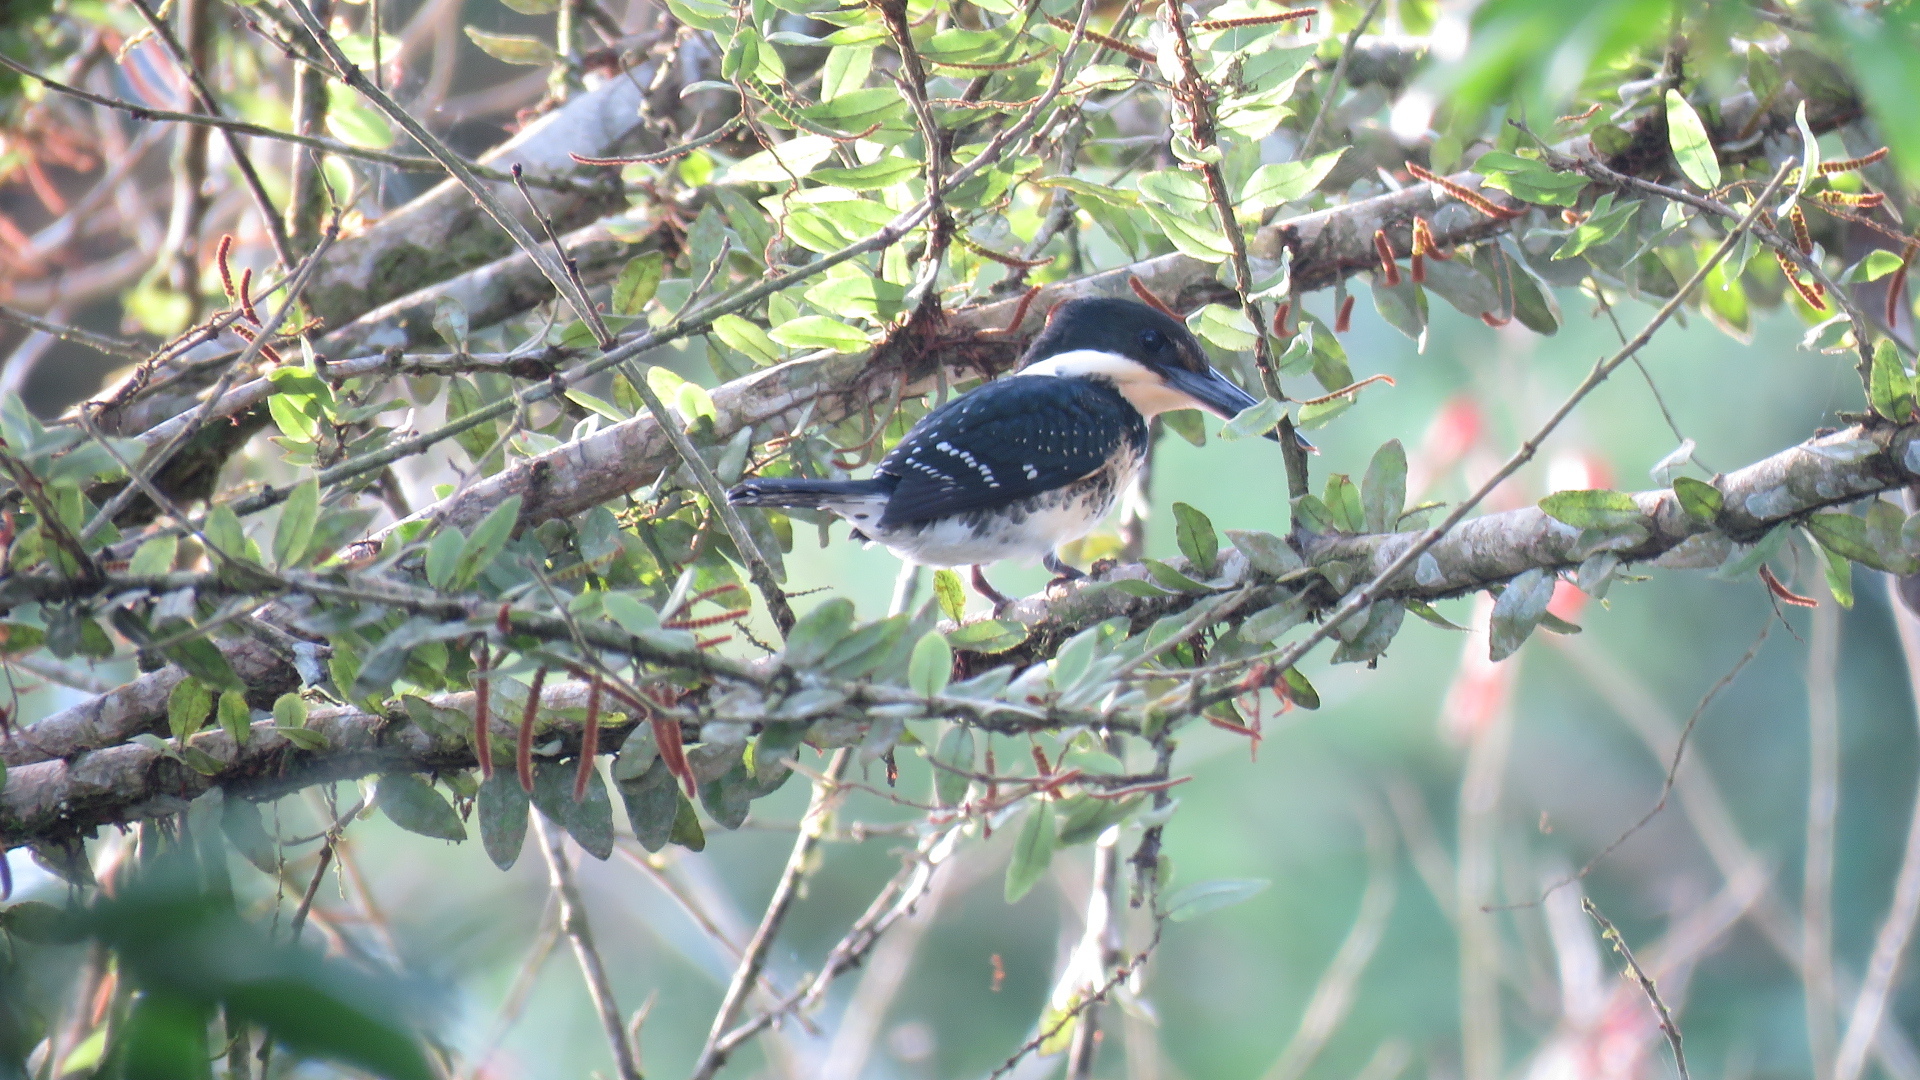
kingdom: Animalia
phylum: Chordata
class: Aves
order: Coraciiformes
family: Alcedinidae
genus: Chloroceryle
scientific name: Chloroceryle americana
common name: Green kingfisher
